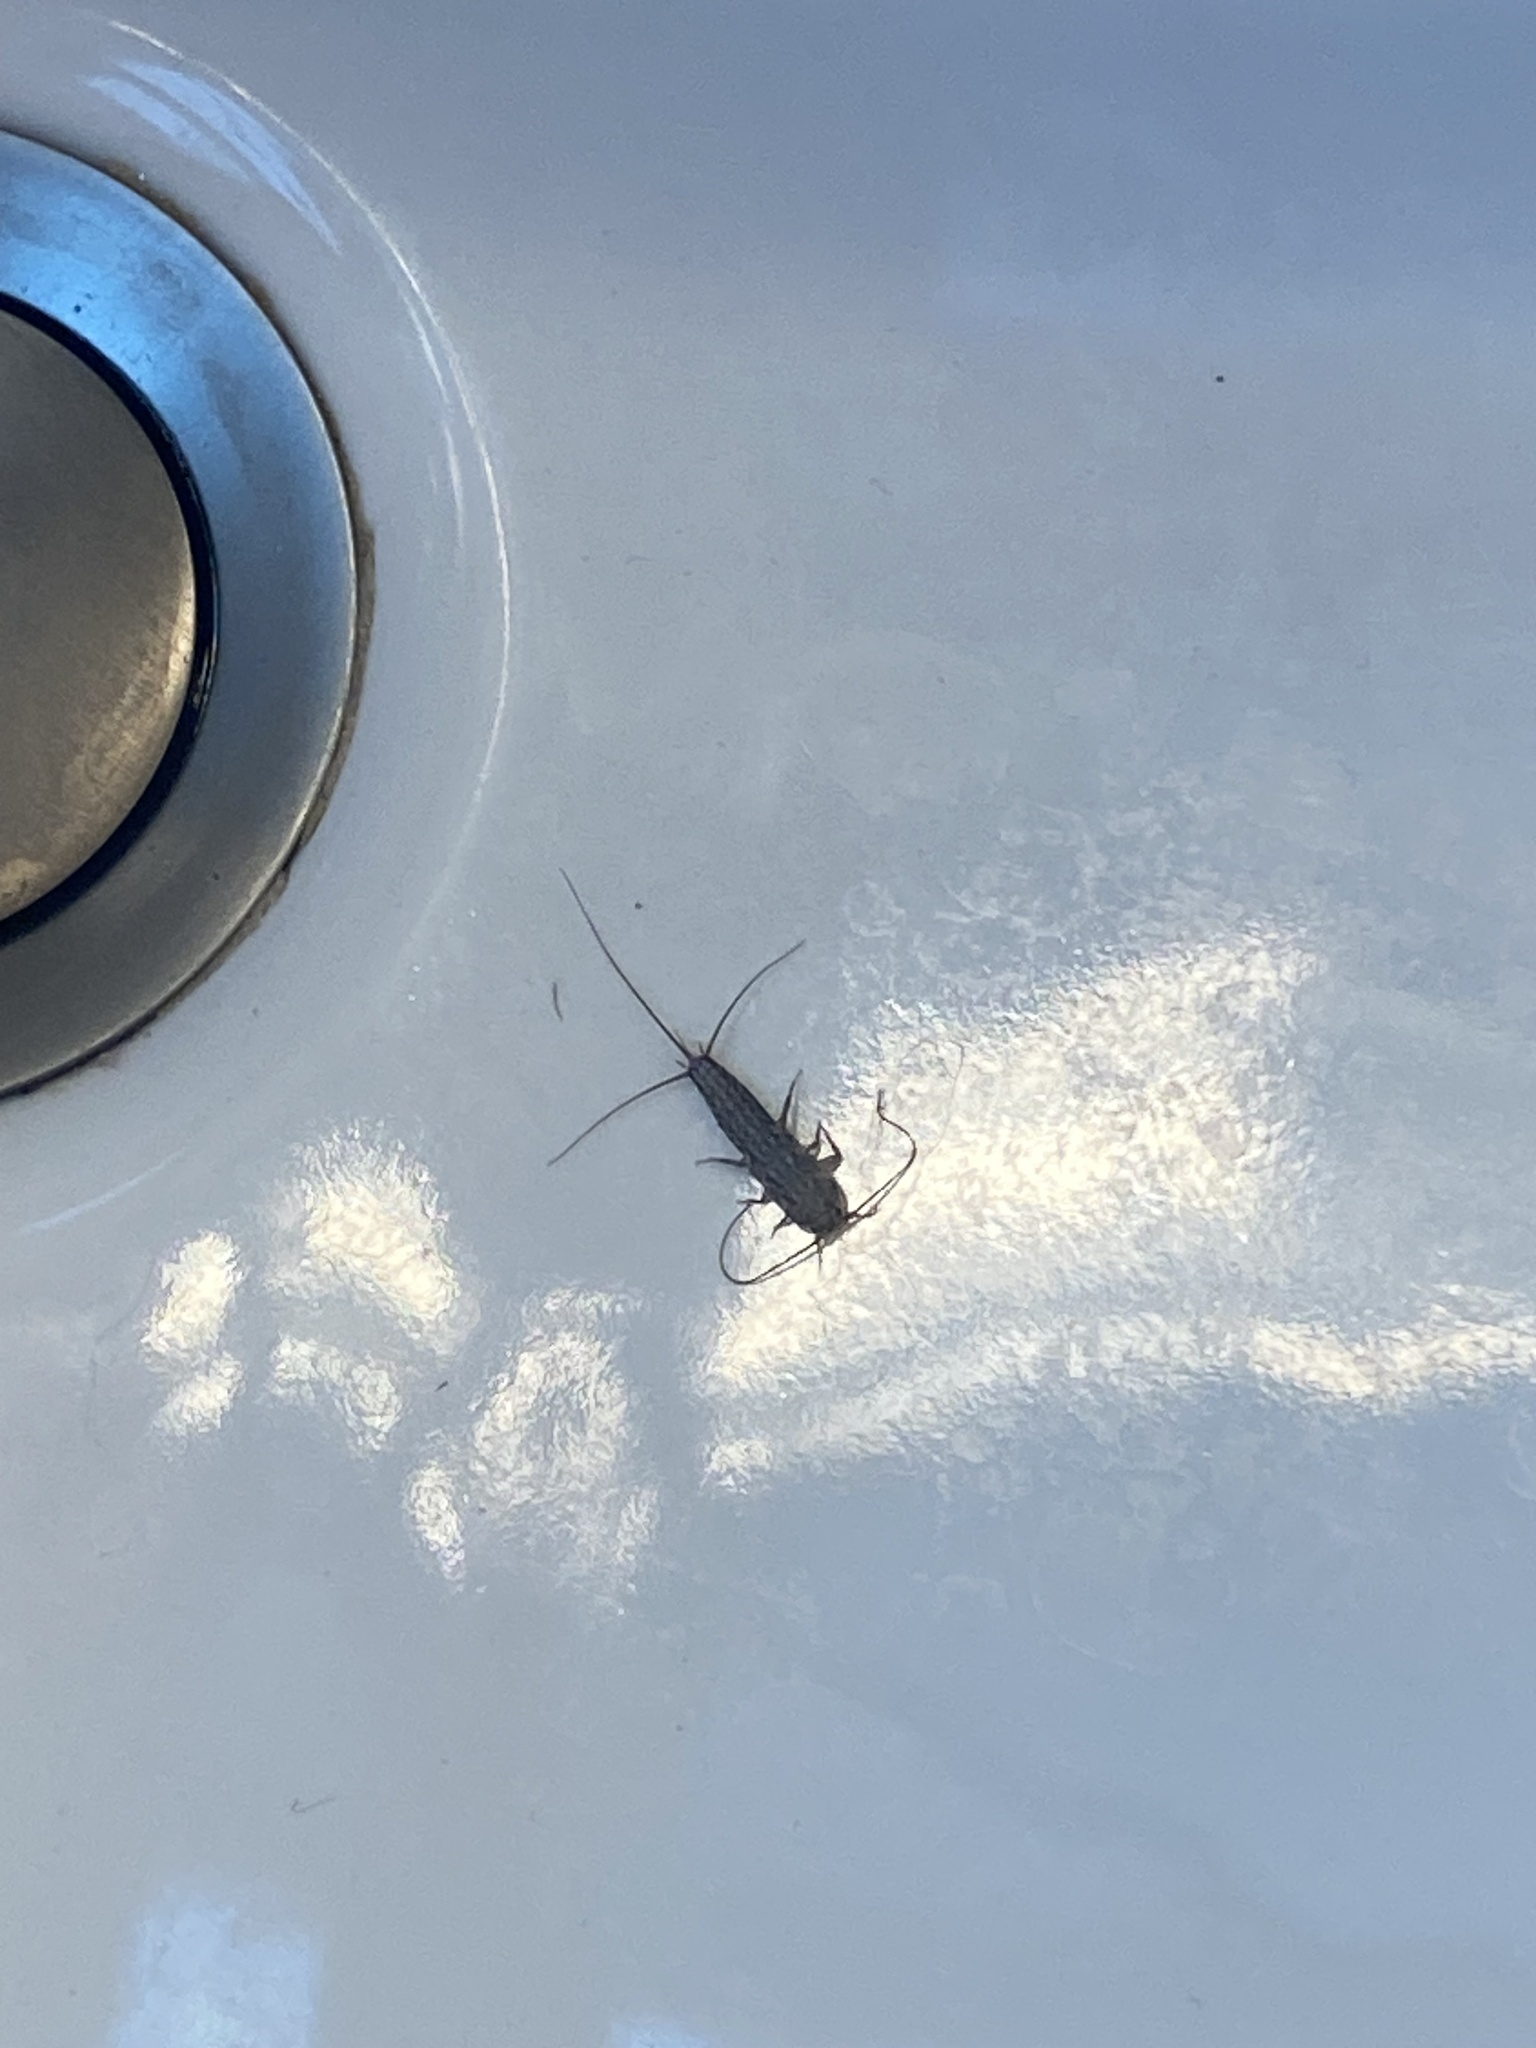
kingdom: Animalia
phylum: Arthropoda
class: Insecta
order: Zygentoma
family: Lepismatidae
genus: Ctenolepisma
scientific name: Ctenolepisma lineata
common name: Four-lined silverfish
